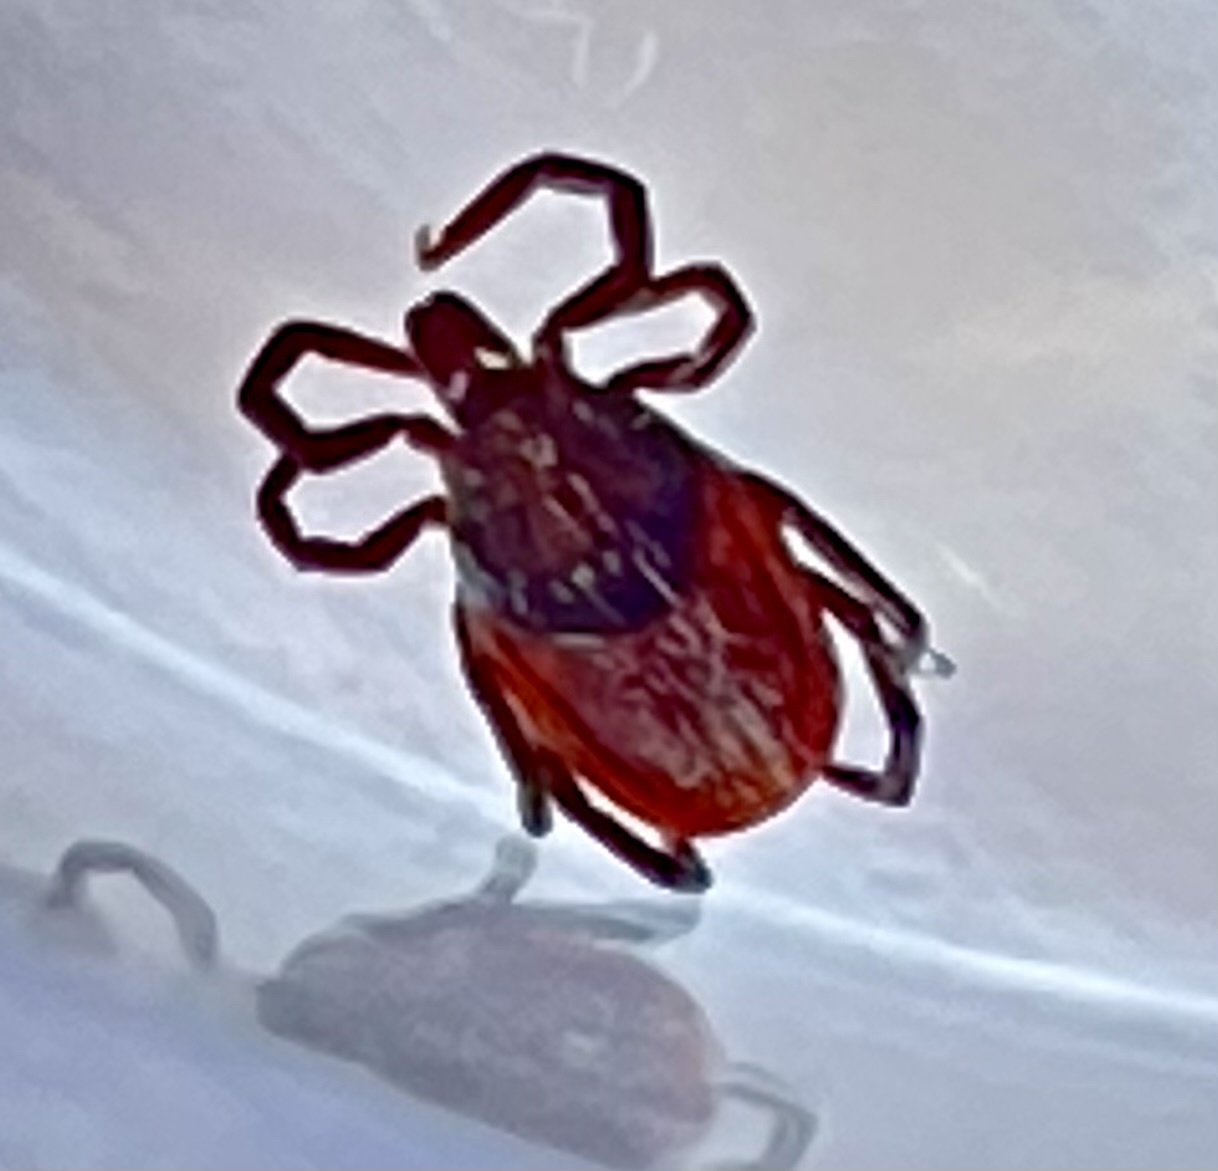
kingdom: Animalia
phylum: Arthropoda
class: Arachnida
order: Ixodida
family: Ixodidae
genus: Ixodes
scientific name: Ixodes pacificus
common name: California black-legged tick
